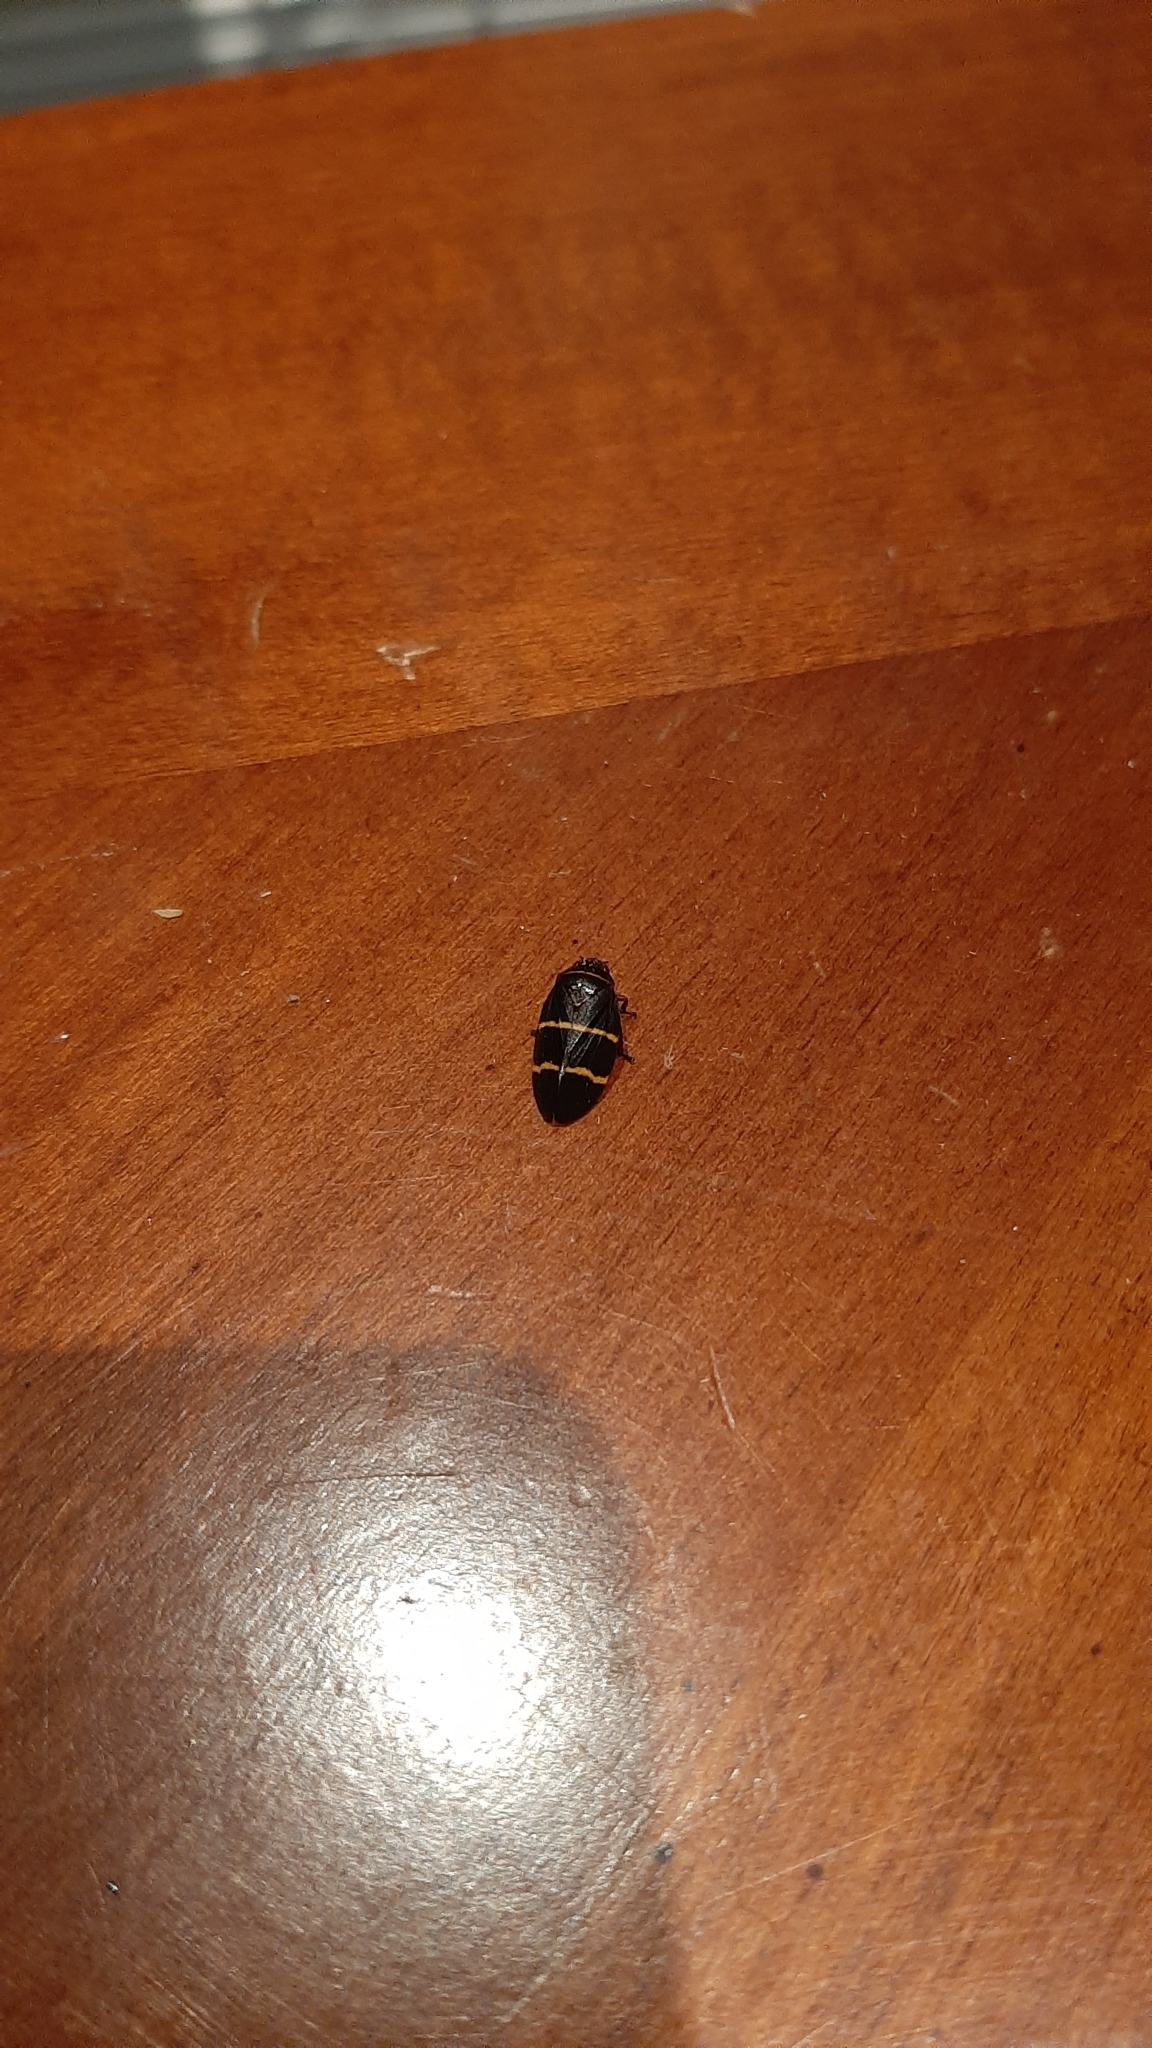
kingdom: Animalia
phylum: Arthropoda
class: Insecta
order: Hemiptera
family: Cercopidae
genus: Prosapia
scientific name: Prosapia bicincta
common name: Twolined spittlebug
